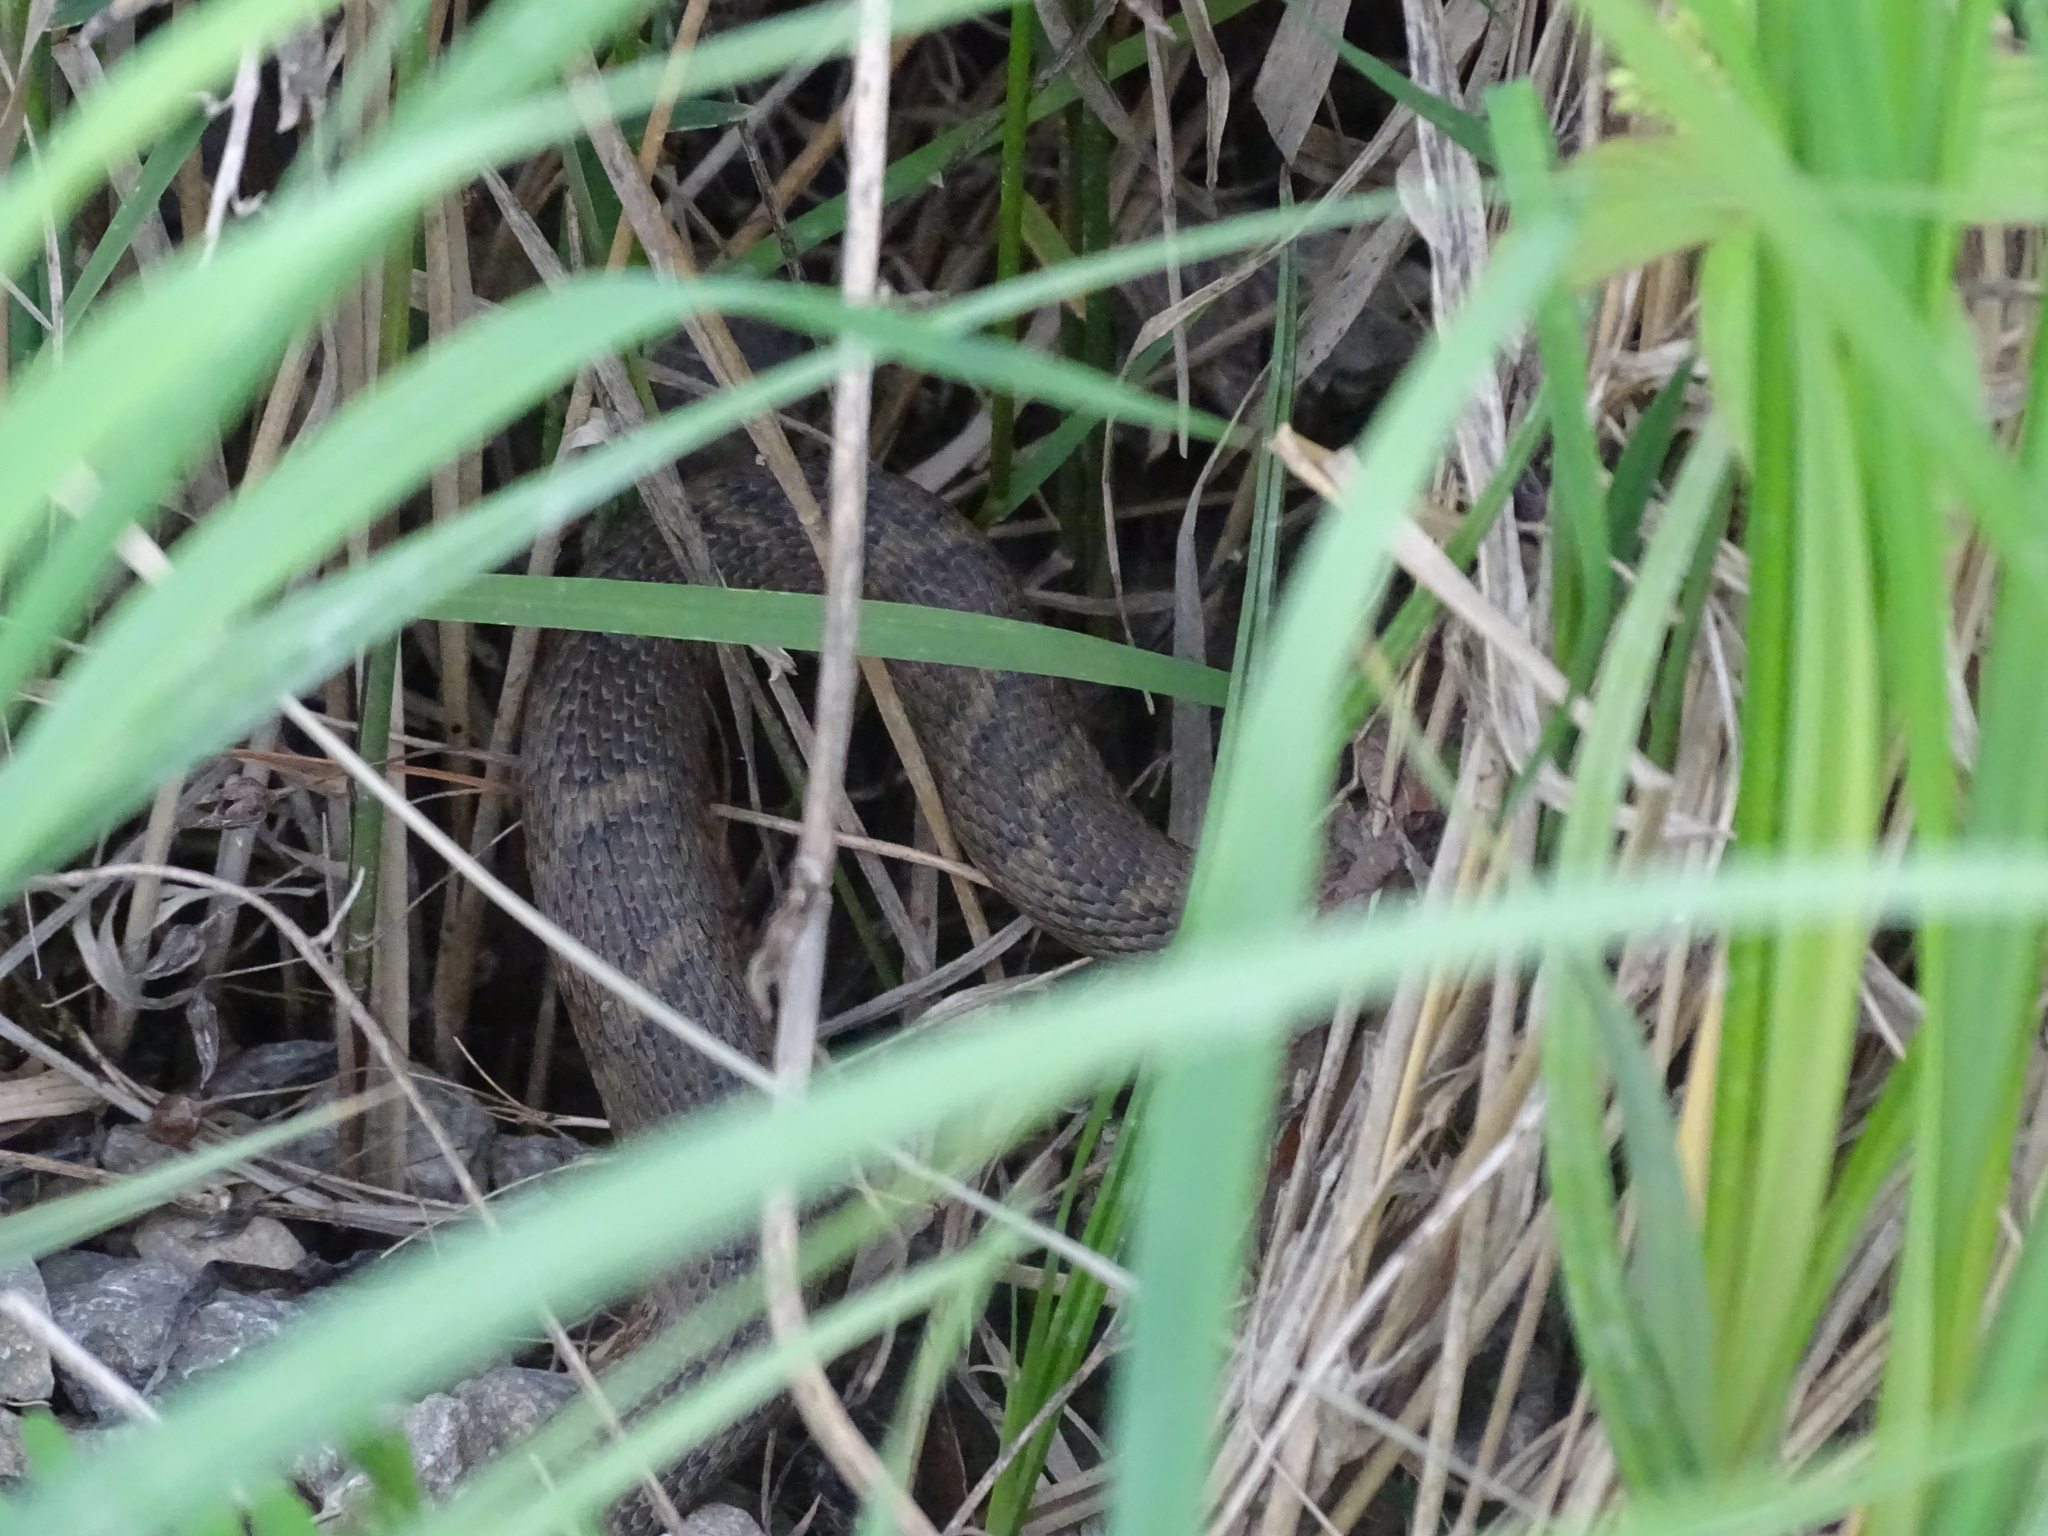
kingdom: Animalia
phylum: Chordata
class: Squamata
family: Colubridae
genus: Nerodia
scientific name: Nerodia sipedon
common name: Northern water snake
